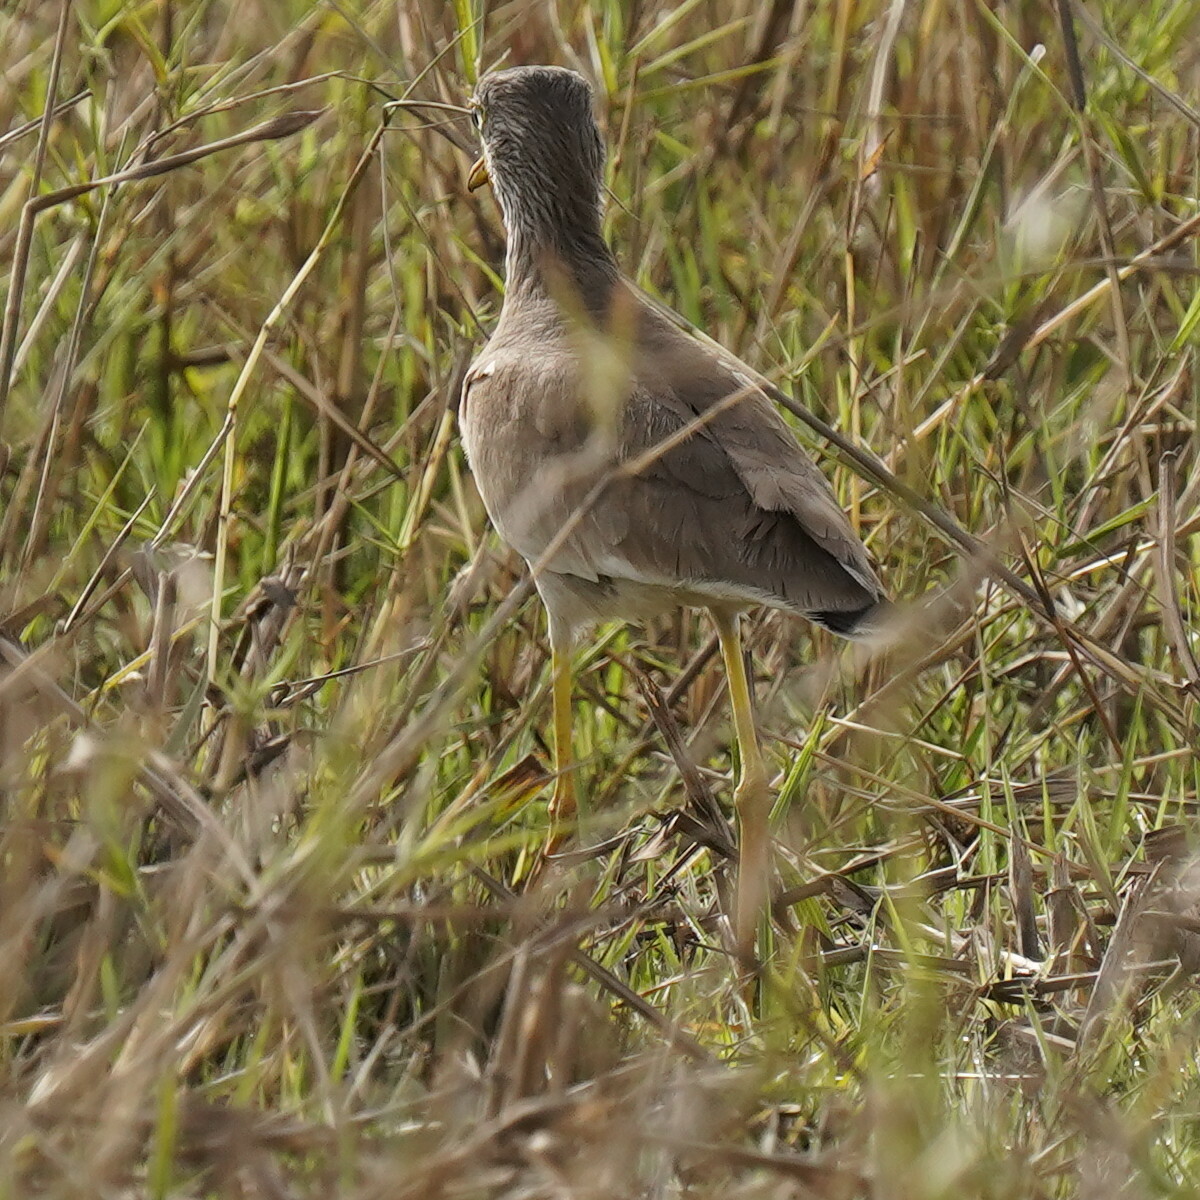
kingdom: Animalia
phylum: Chordata
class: Aves
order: Charadriiformes
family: Charadriidae
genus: Vanellus
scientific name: Vanellus senegallus
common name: African wattled lapwing
